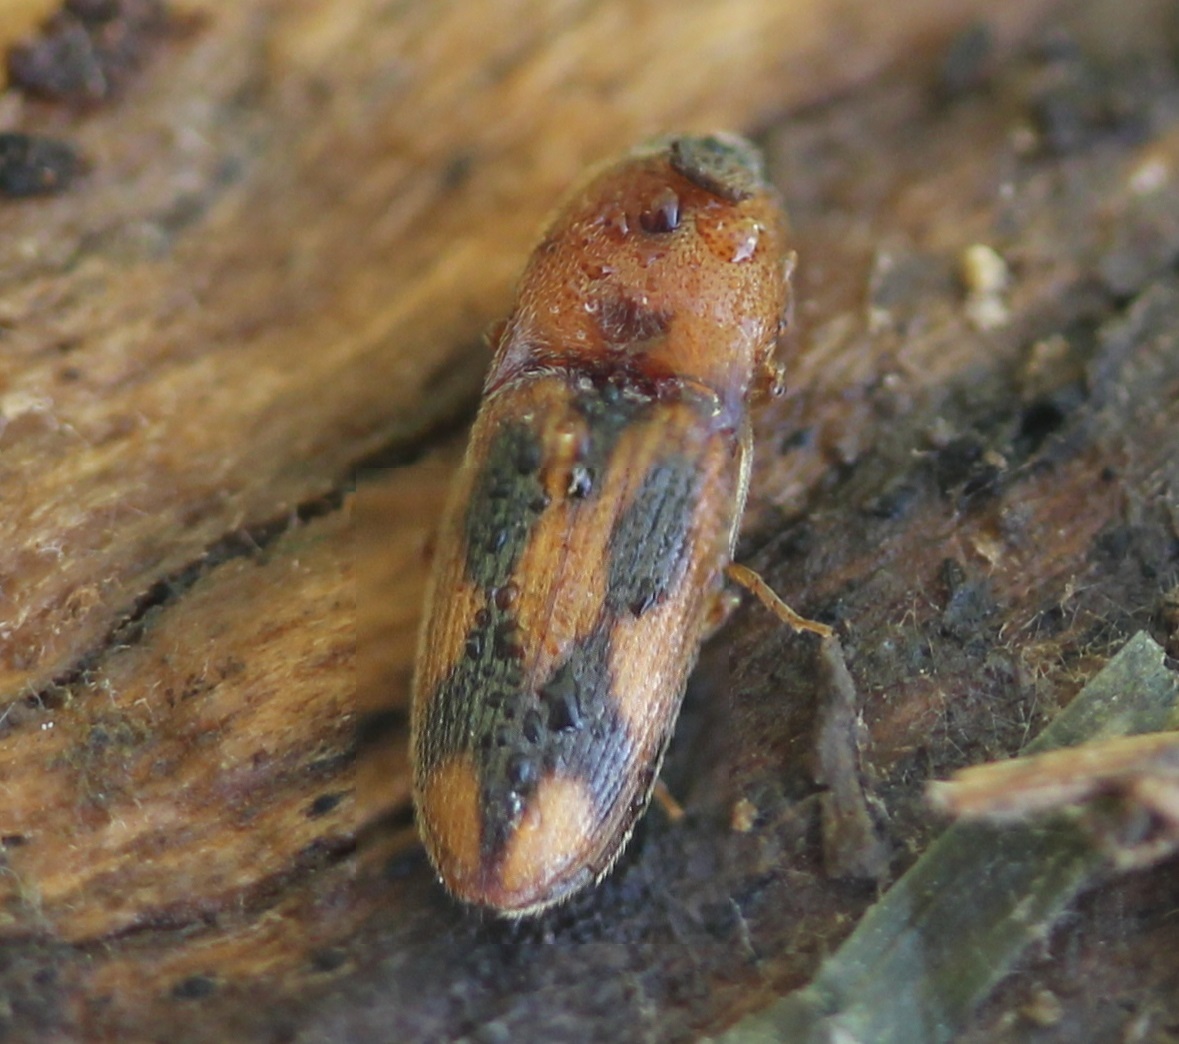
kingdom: Animalia
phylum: Arthropoda
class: Insecta
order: Coleoptera
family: Elateridae
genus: Aeolus
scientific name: Aeolus mellillus
